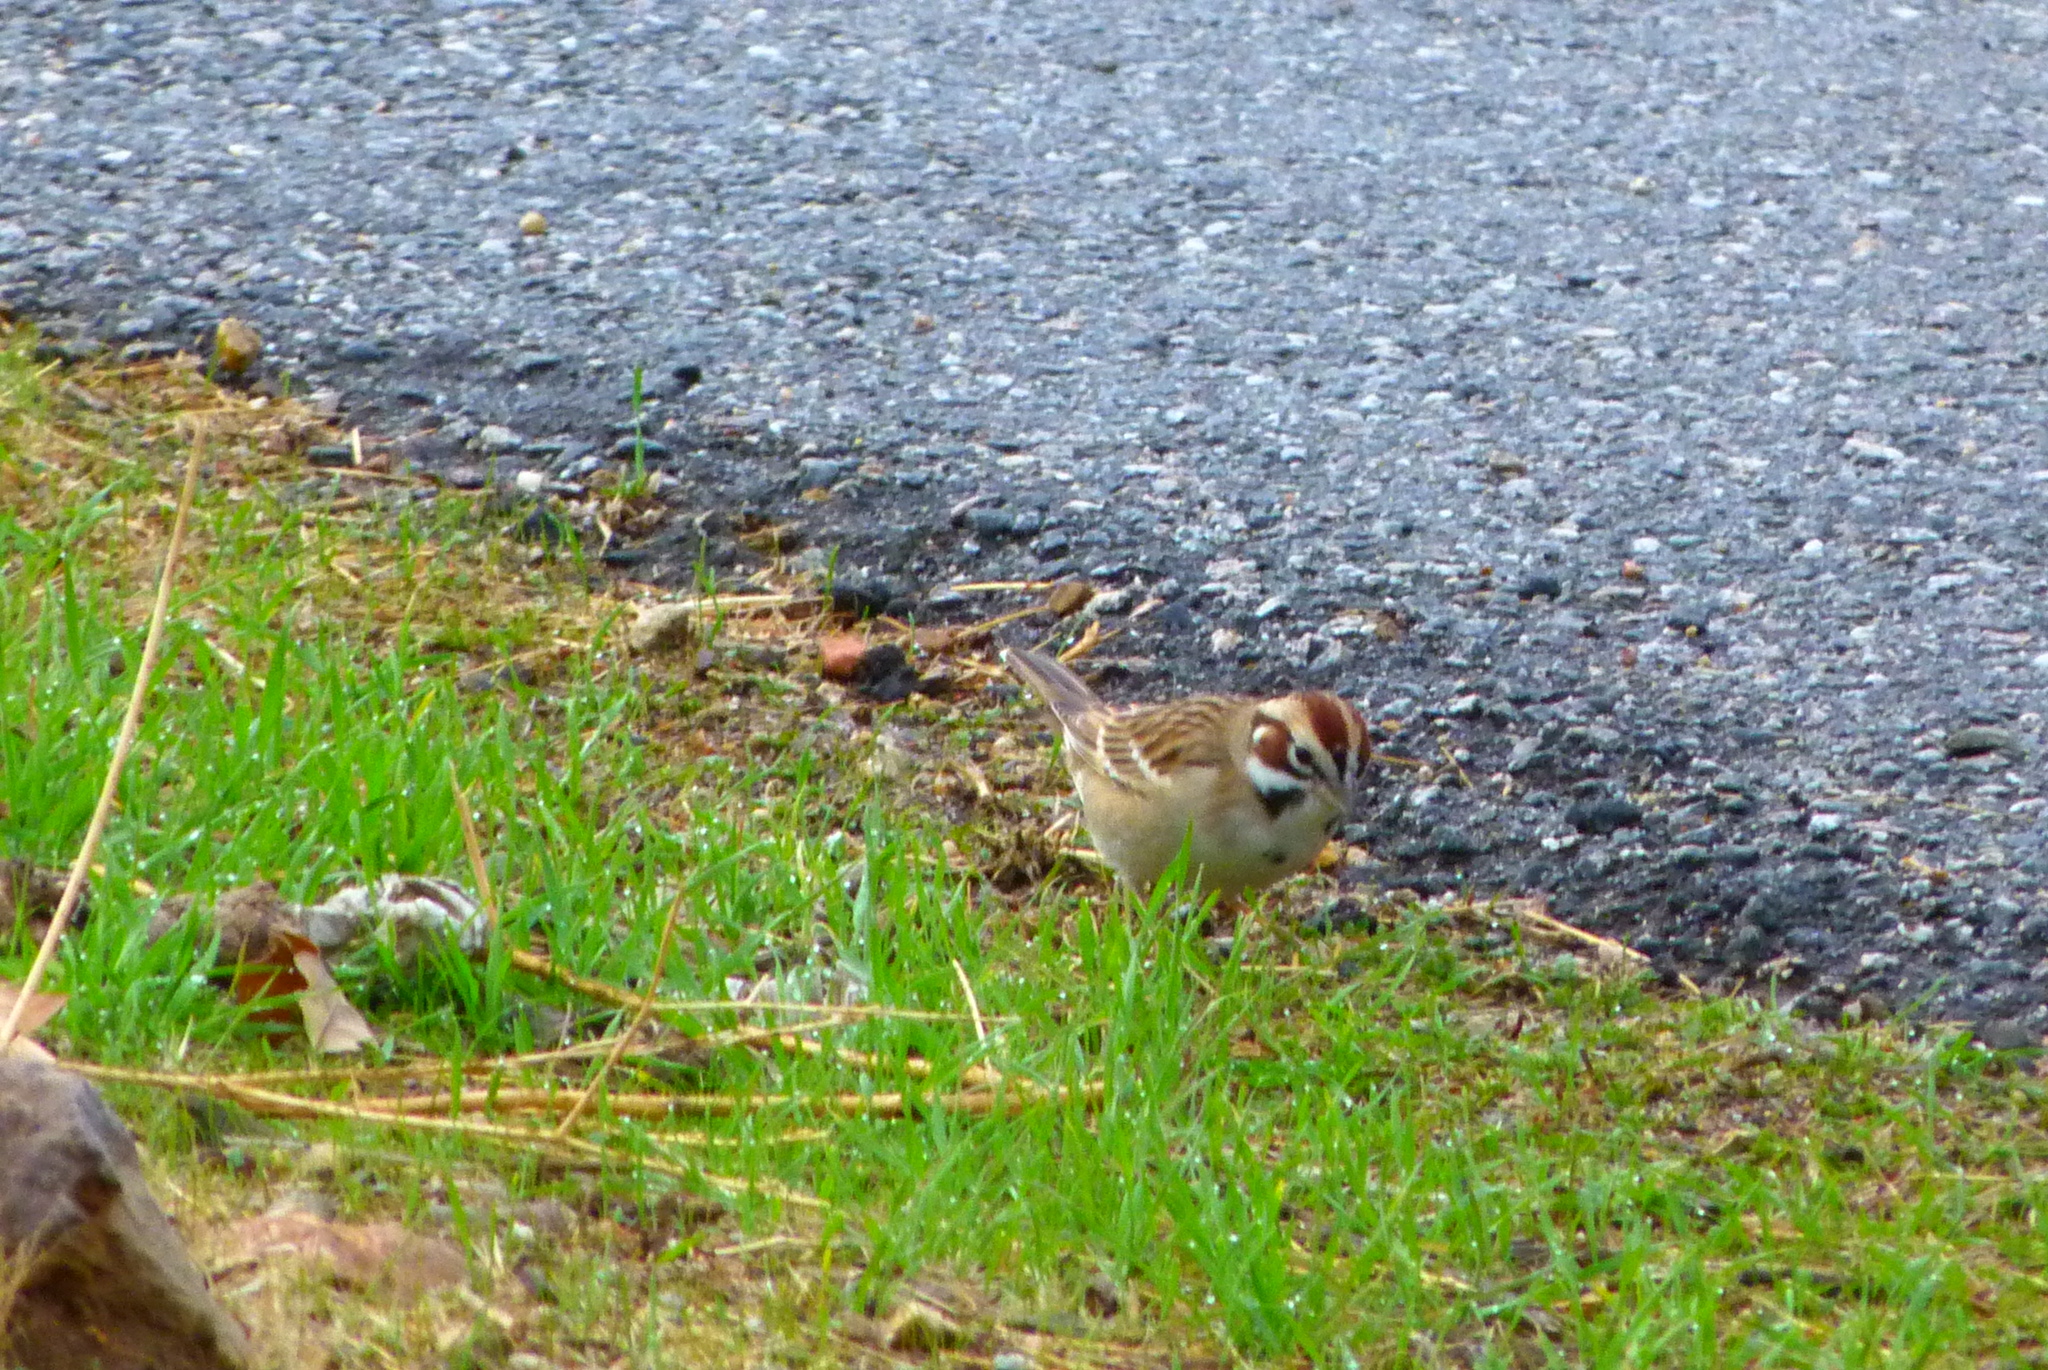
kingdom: Animalia
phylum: Chordata
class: Aves
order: Passeriformes
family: Passerellidae
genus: Chondestes
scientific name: Chondestes grammacus
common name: Lark sparrow
